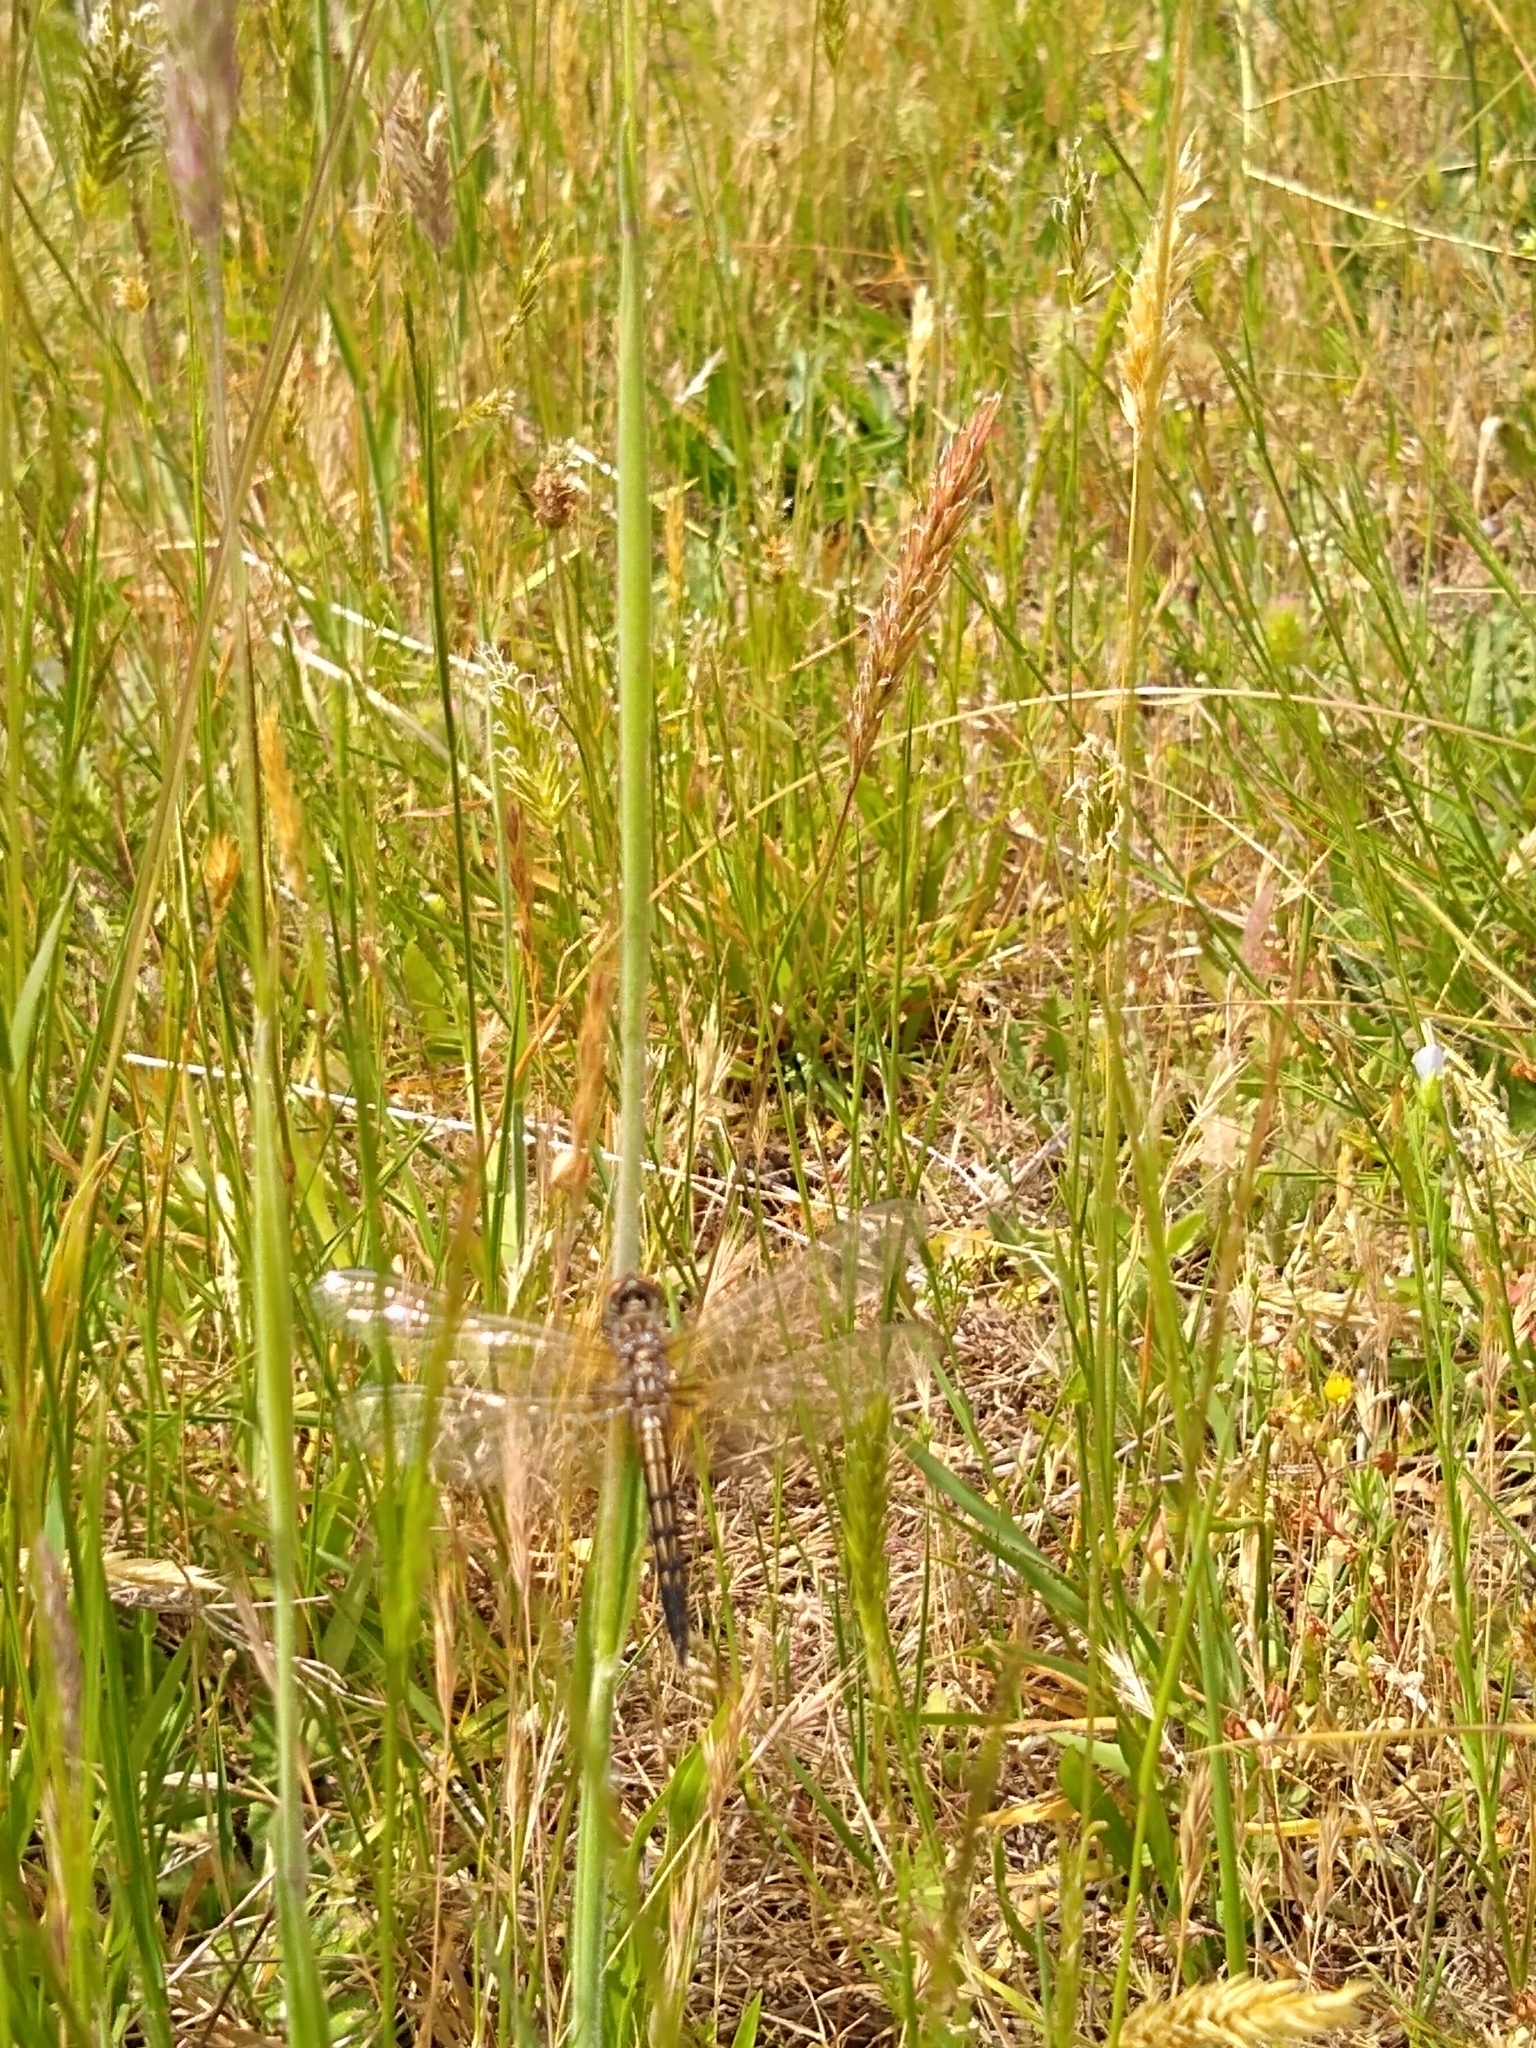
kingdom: Animalia
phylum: Arthropoda
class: Insecta
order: Odonata
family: Libellulidae
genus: Pachydiplax
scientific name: Pachydiplax longipennis
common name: Blue dasher
